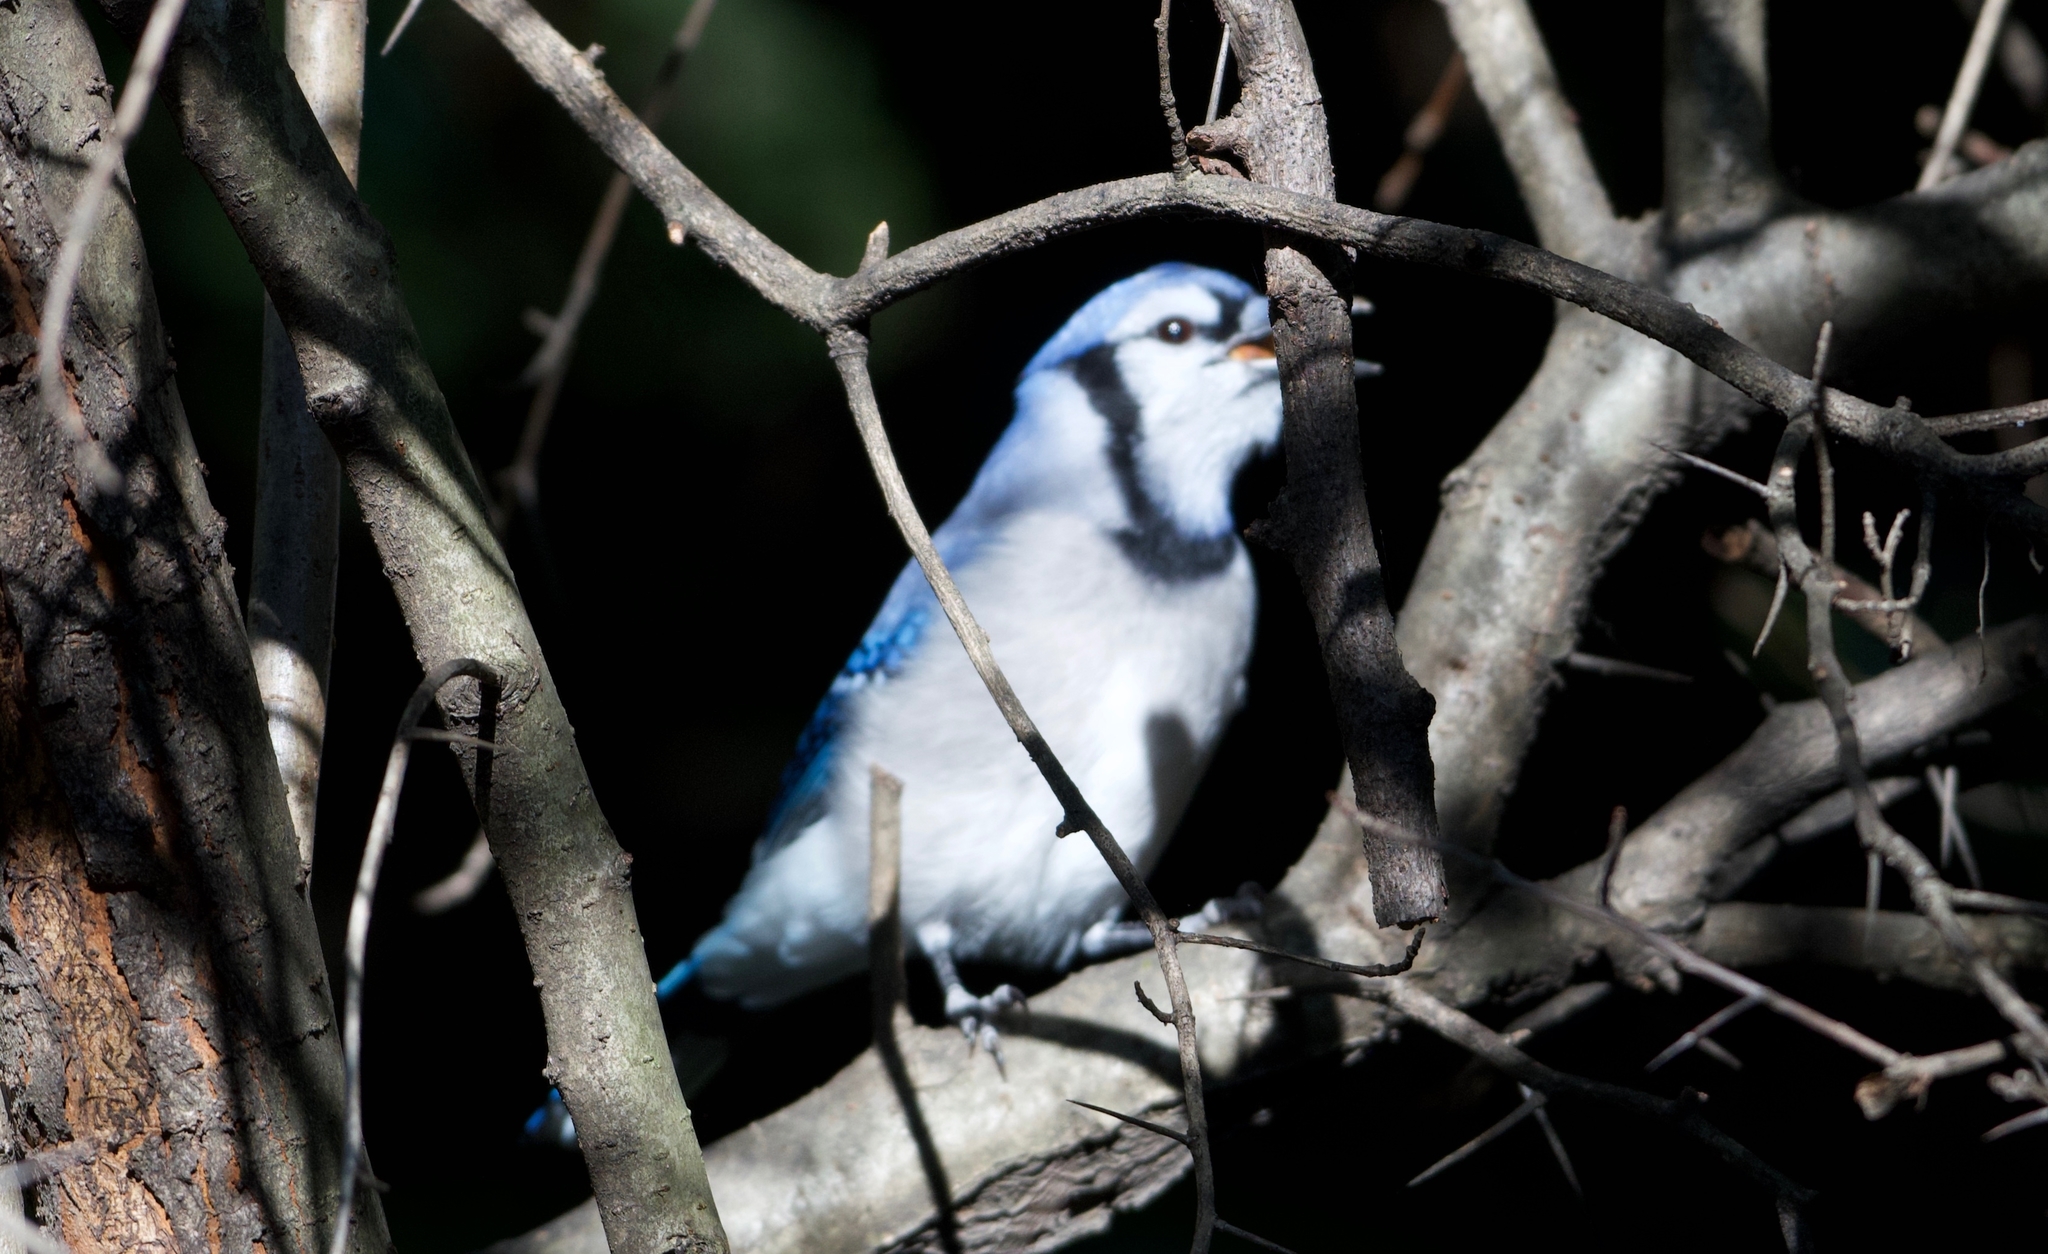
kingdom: Animalia
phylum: Chordata
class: Aves
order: Passeriformes
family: Corvidae
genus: Cyanocitta
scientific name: Cyanocitta cristata
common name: Blue jay
